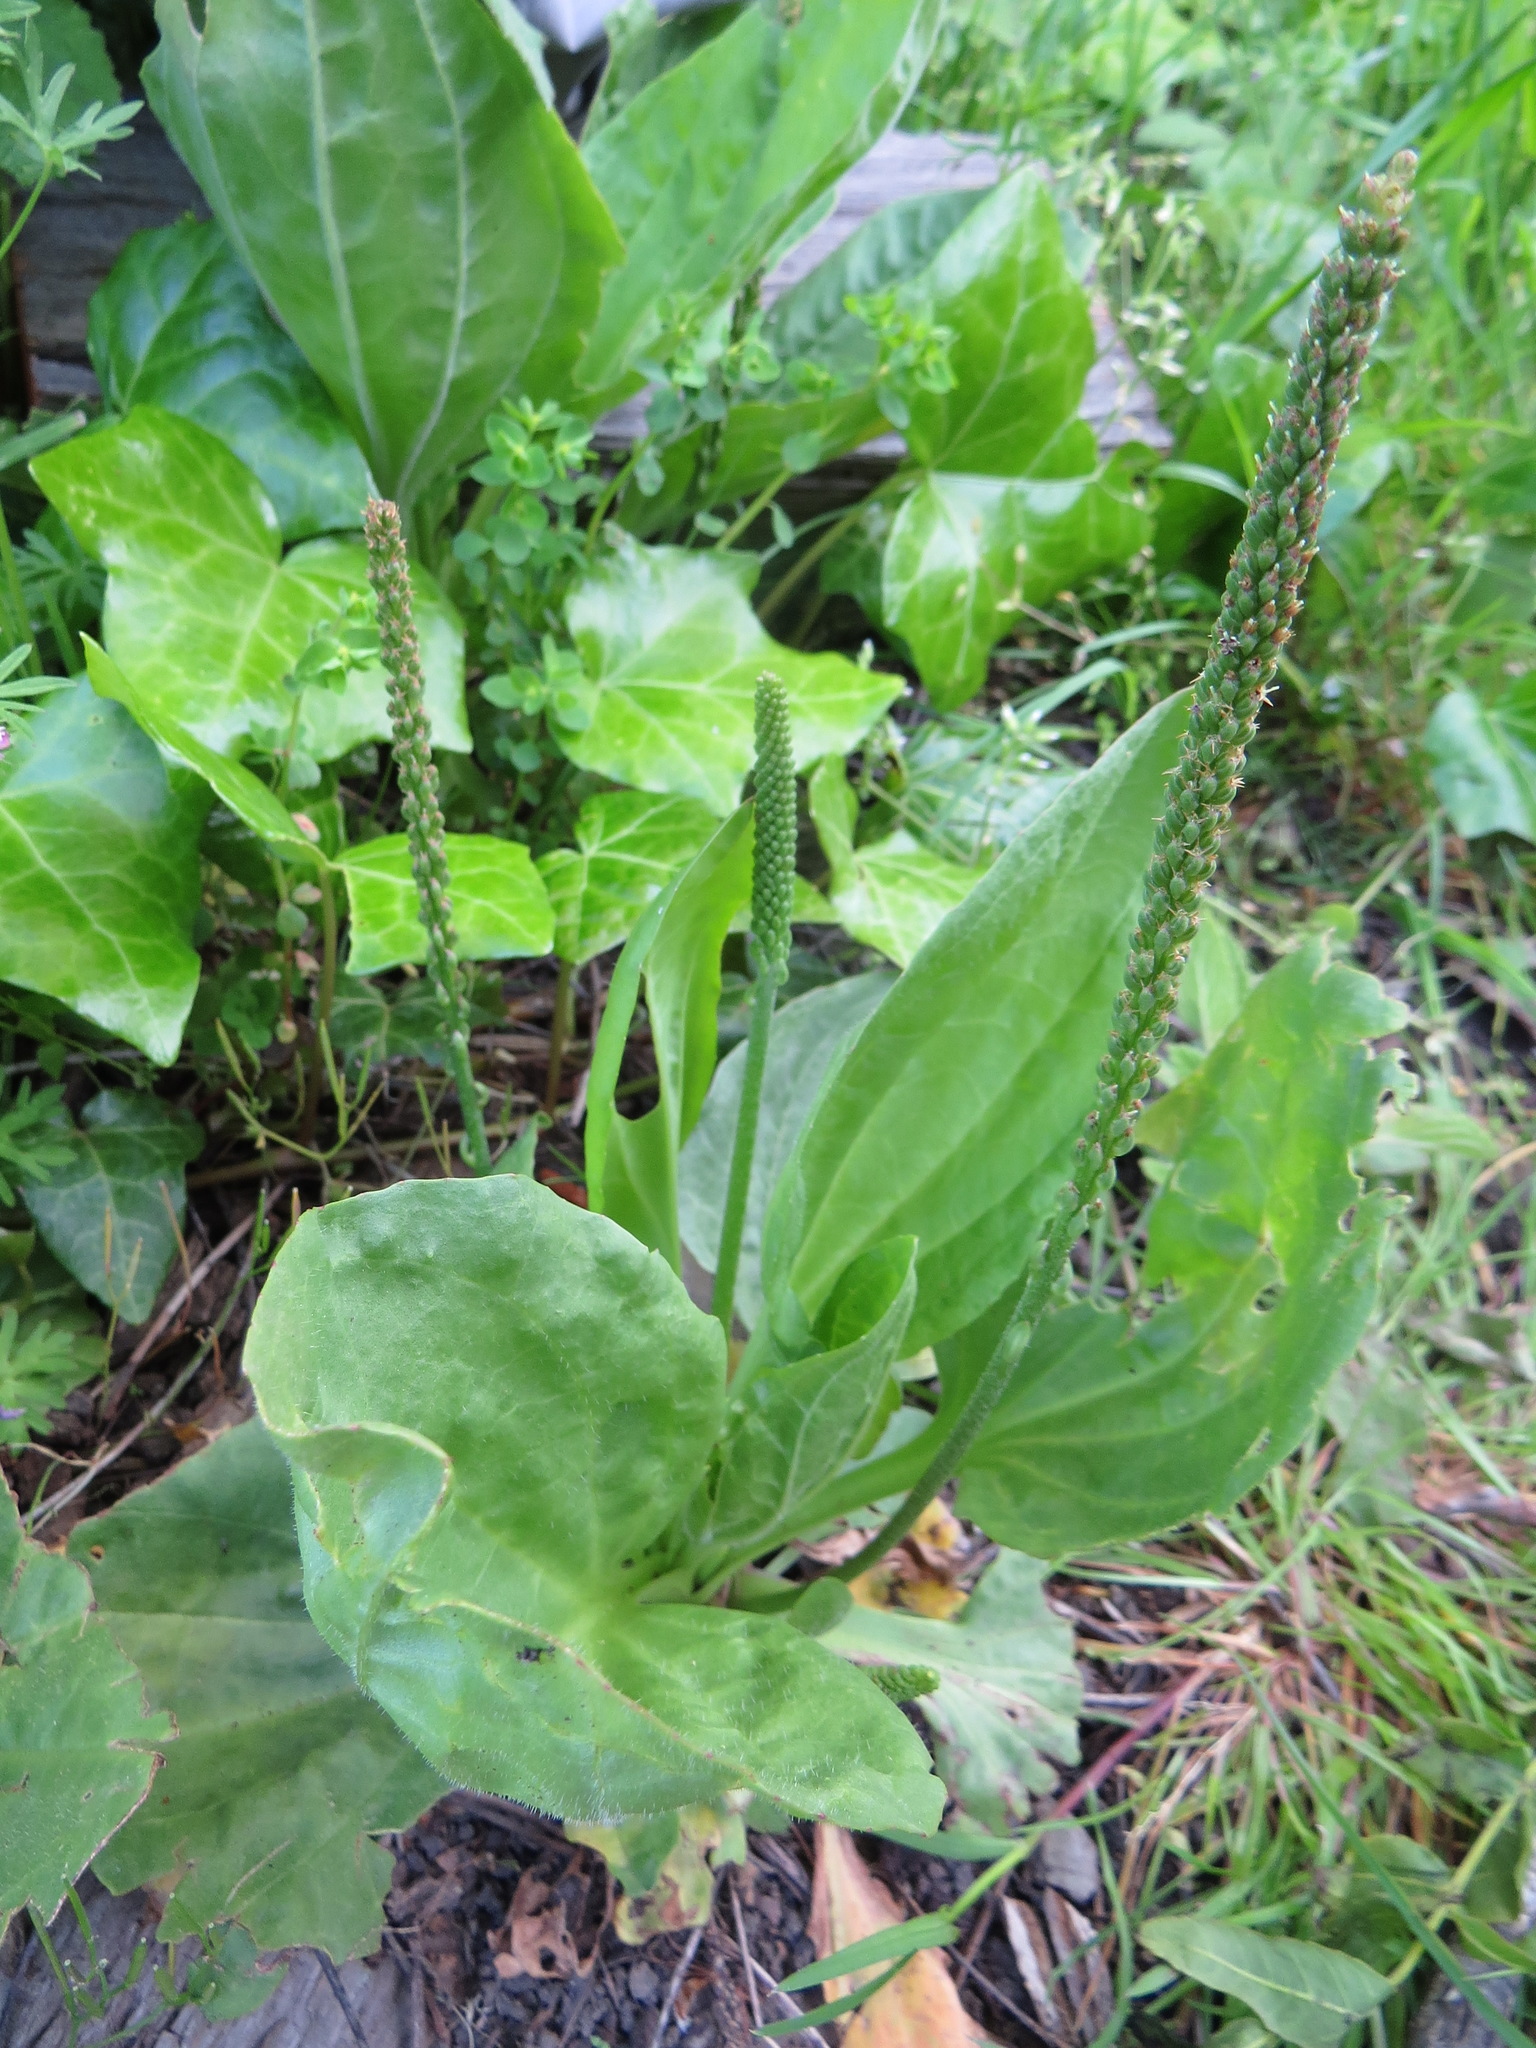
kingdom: Plantae
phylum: Tracheophyta
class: Magnoliopsida
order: Lamiales
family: Plantaginaceae
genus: Plantago
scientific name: Plantago major
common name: Common plantain
